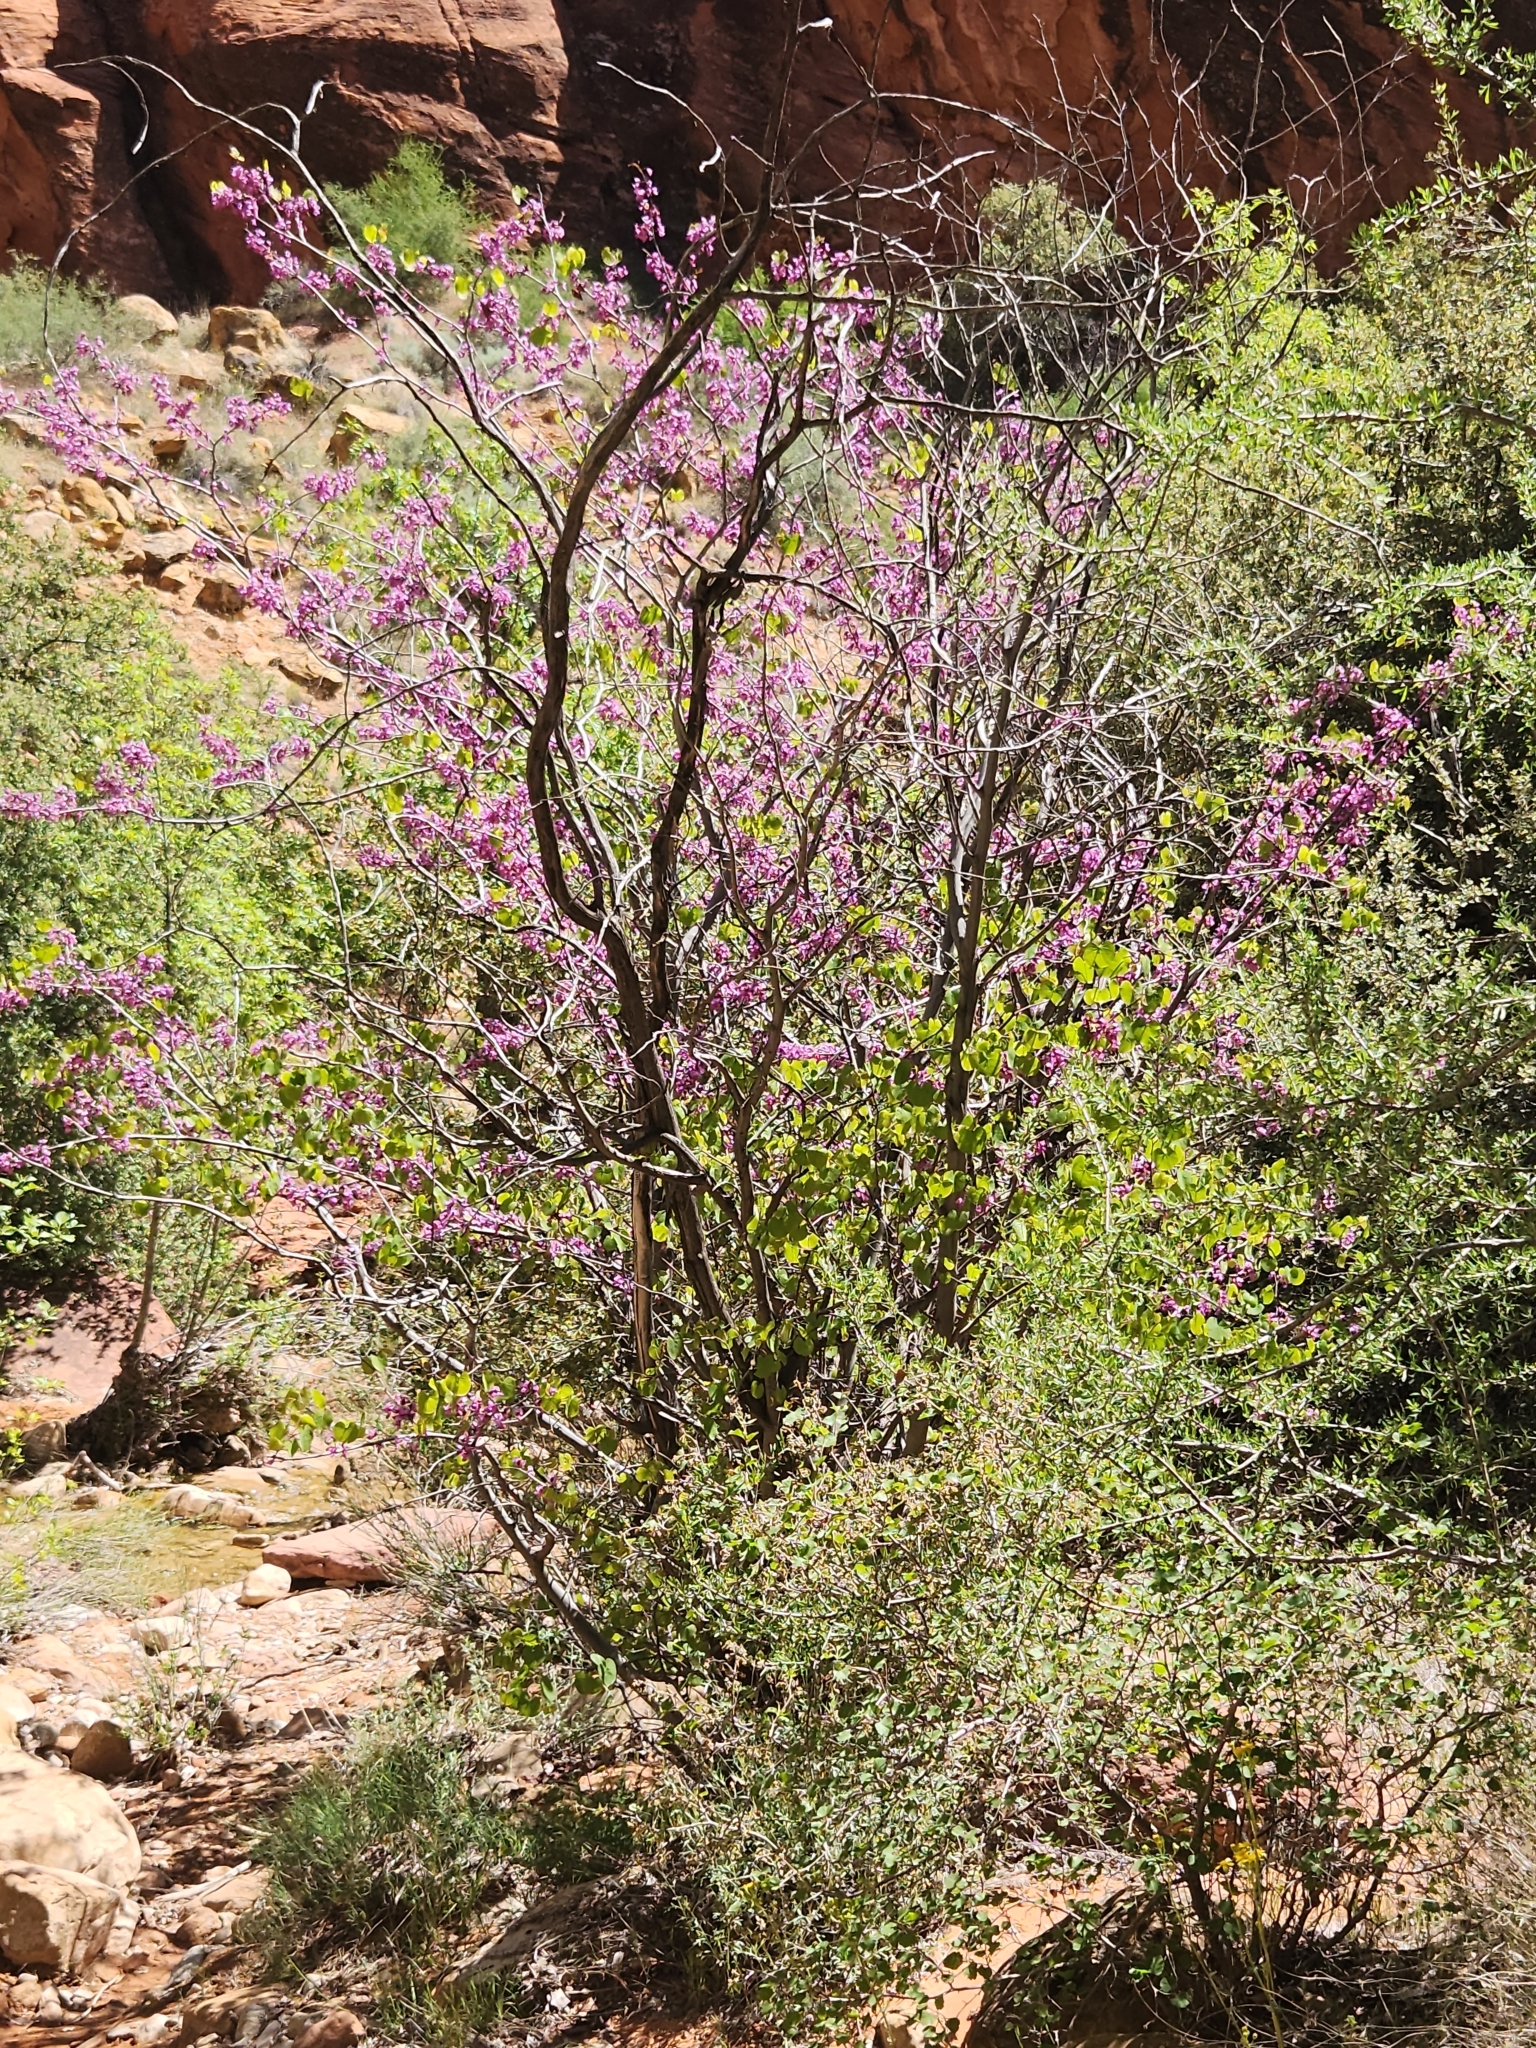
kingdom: Plantae
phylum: Tracheophyta
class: Magnoliopsida
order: Fabales
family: Fabaceae
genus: Cercis
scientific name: Cercis occidentalis
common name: California redbud
